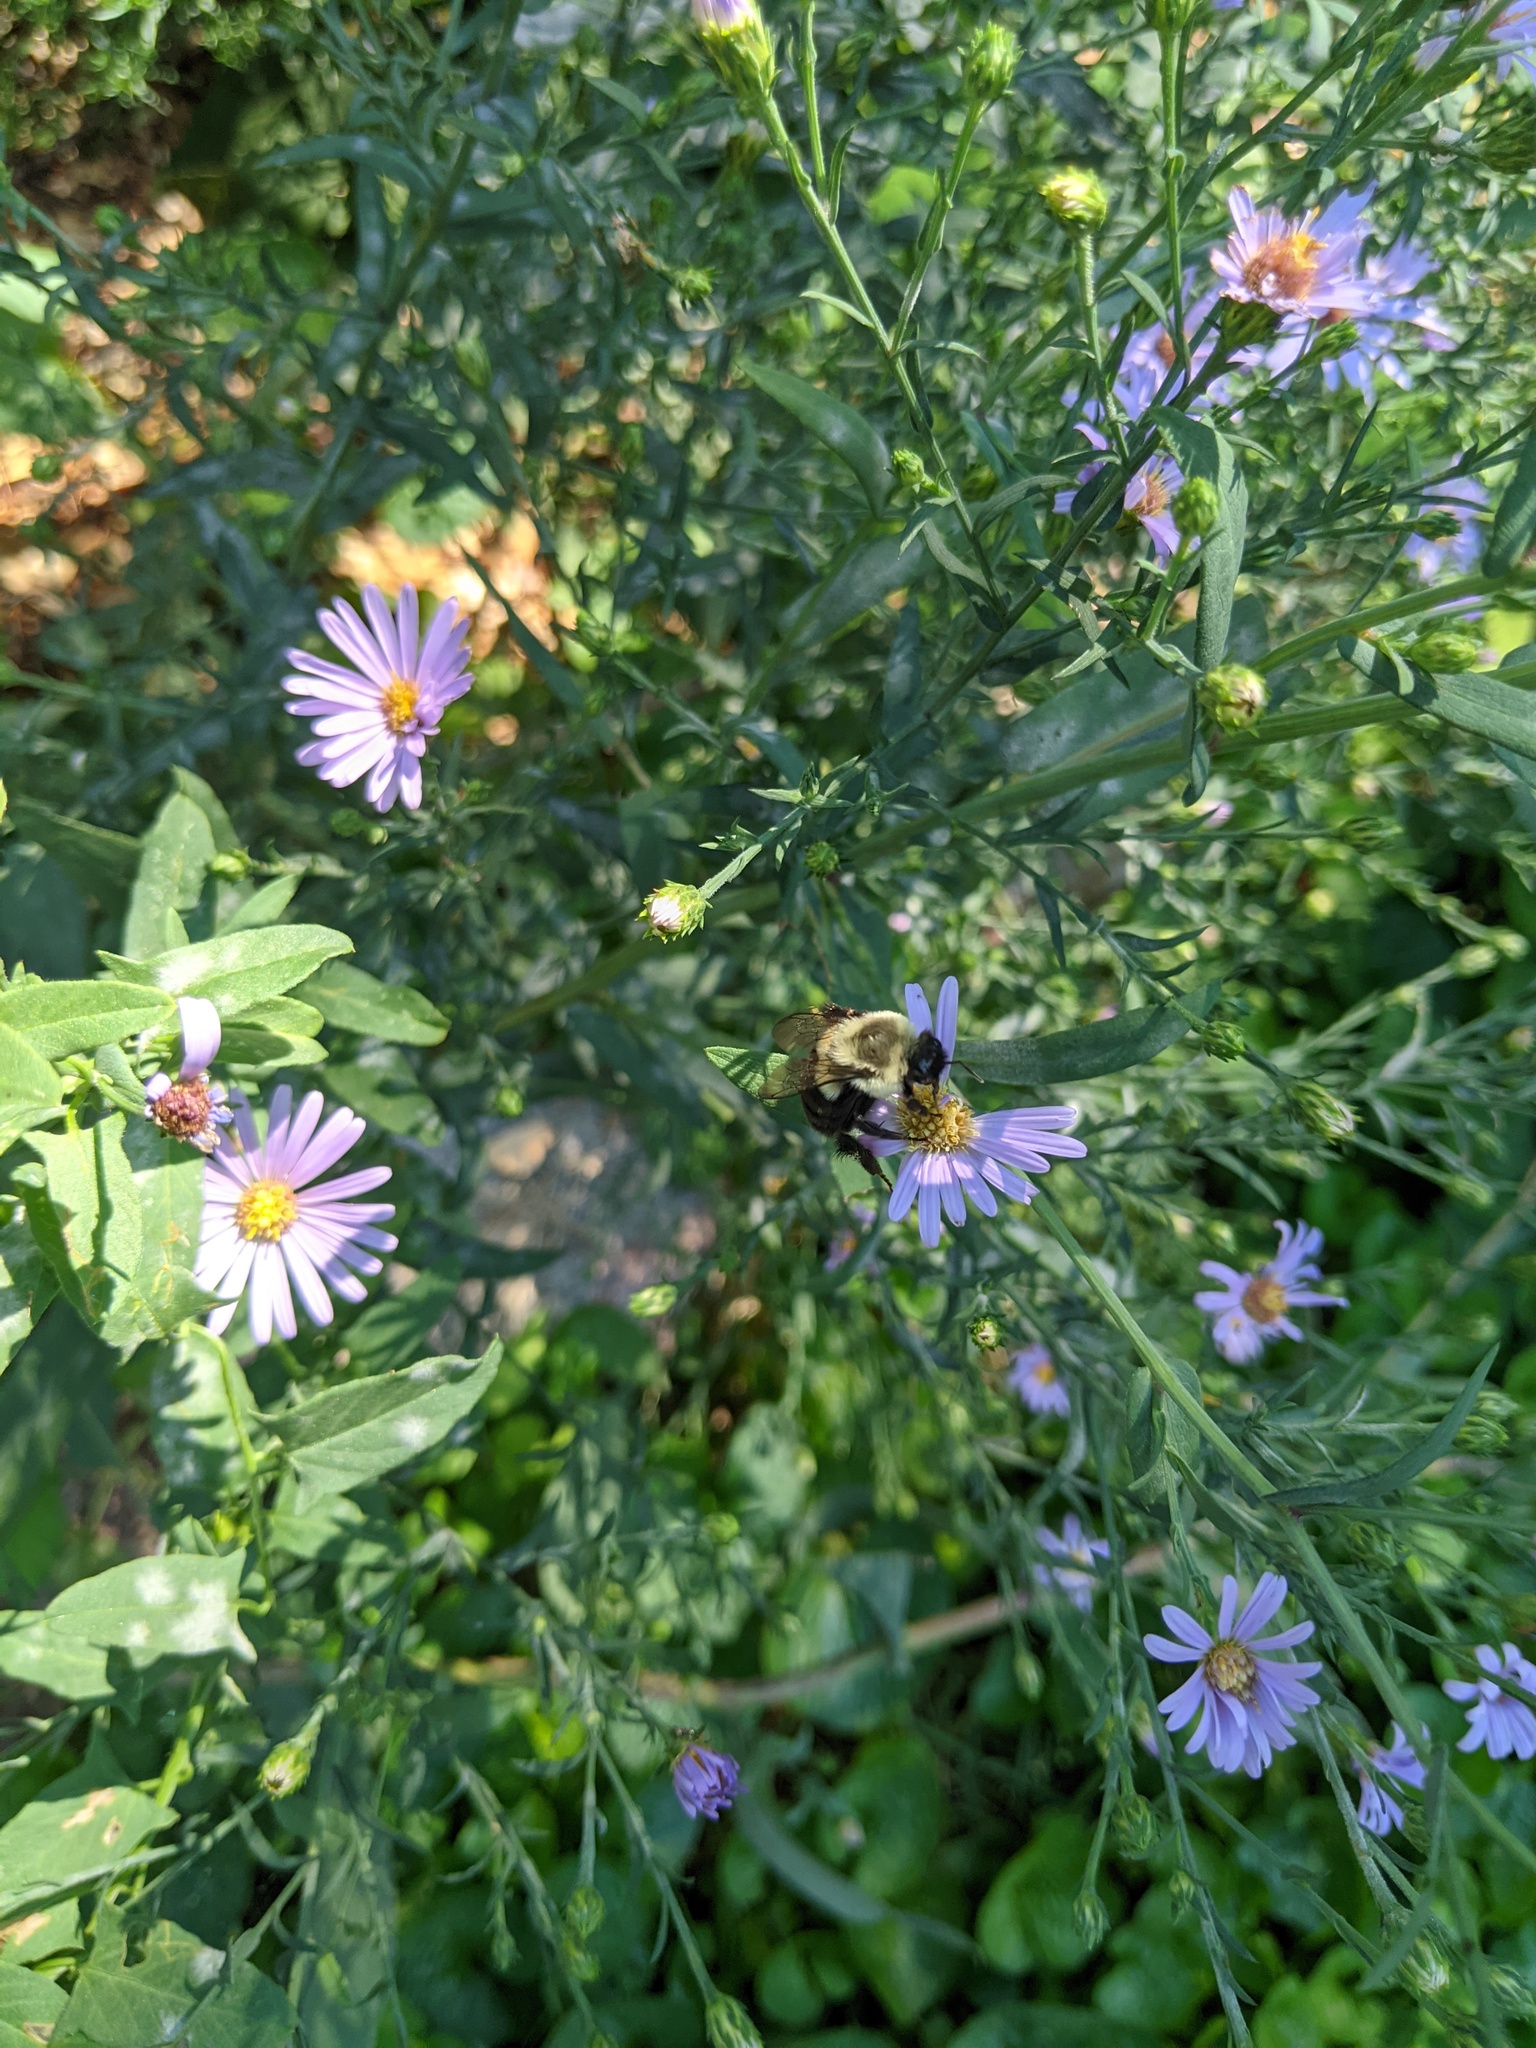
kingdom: Animalia
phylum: Arthropoda
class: Insecta
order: Hymenoptera
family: Apidae
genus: Bombus
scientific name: Bombus impatiens
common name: Common eastern bumble bee
